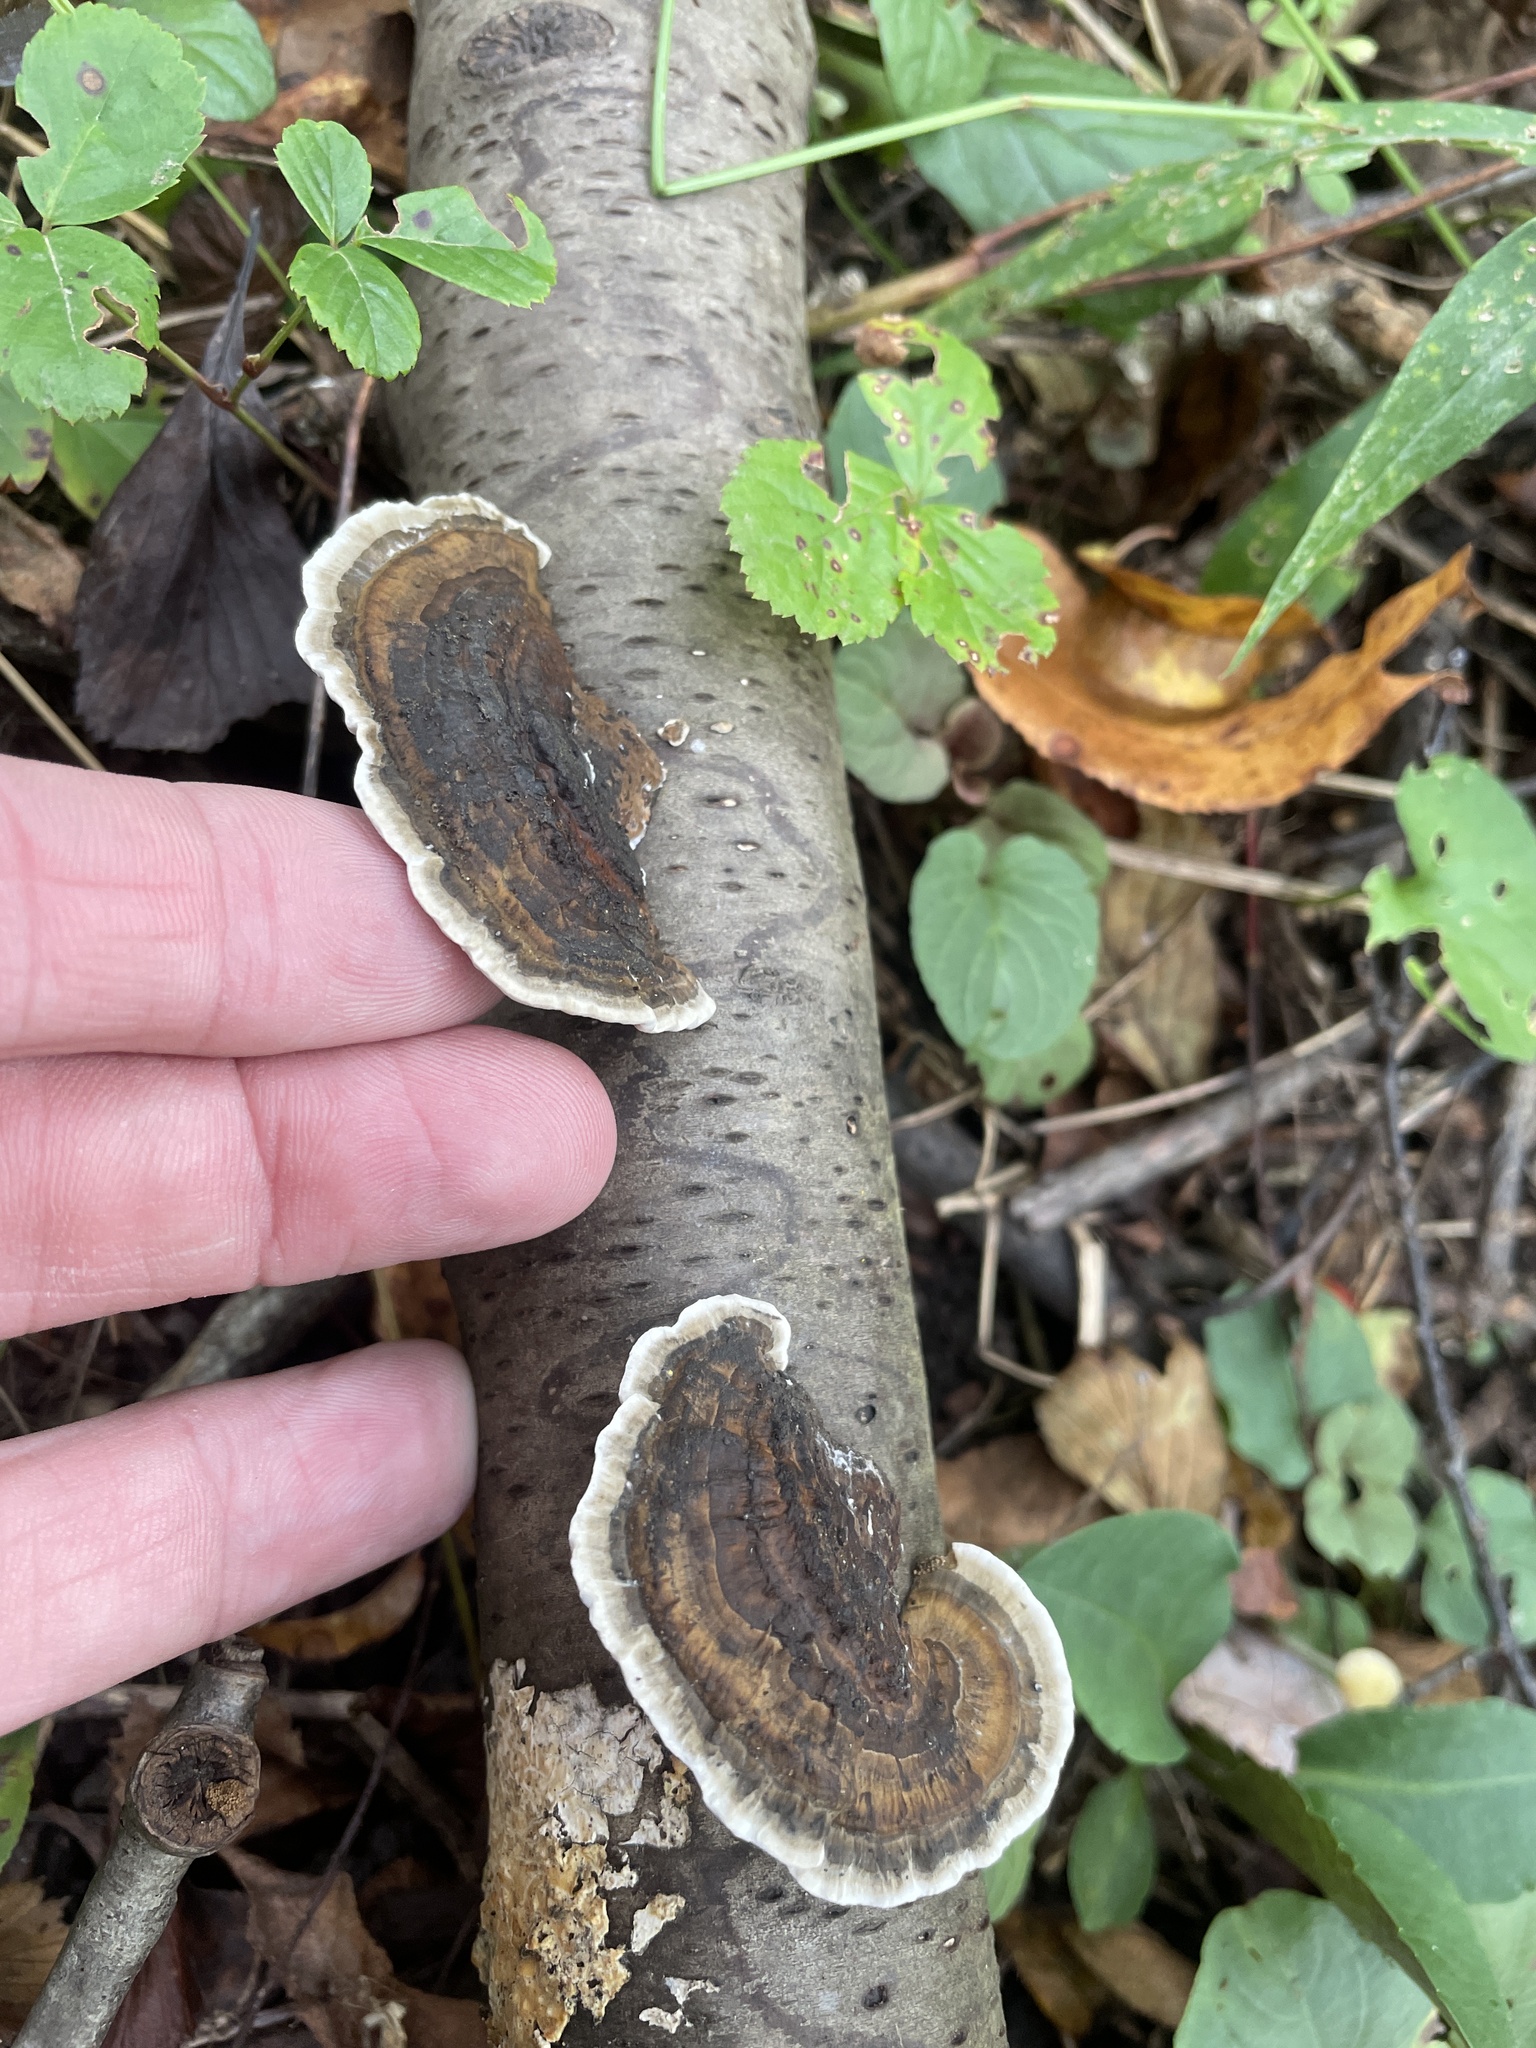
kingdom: Fungi
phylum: Basidiomycota
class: Agaricomycetes
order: Polyporales
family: Polyporaceae
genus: Trametes
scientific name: Trametes versicolor
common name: Turkeytail
